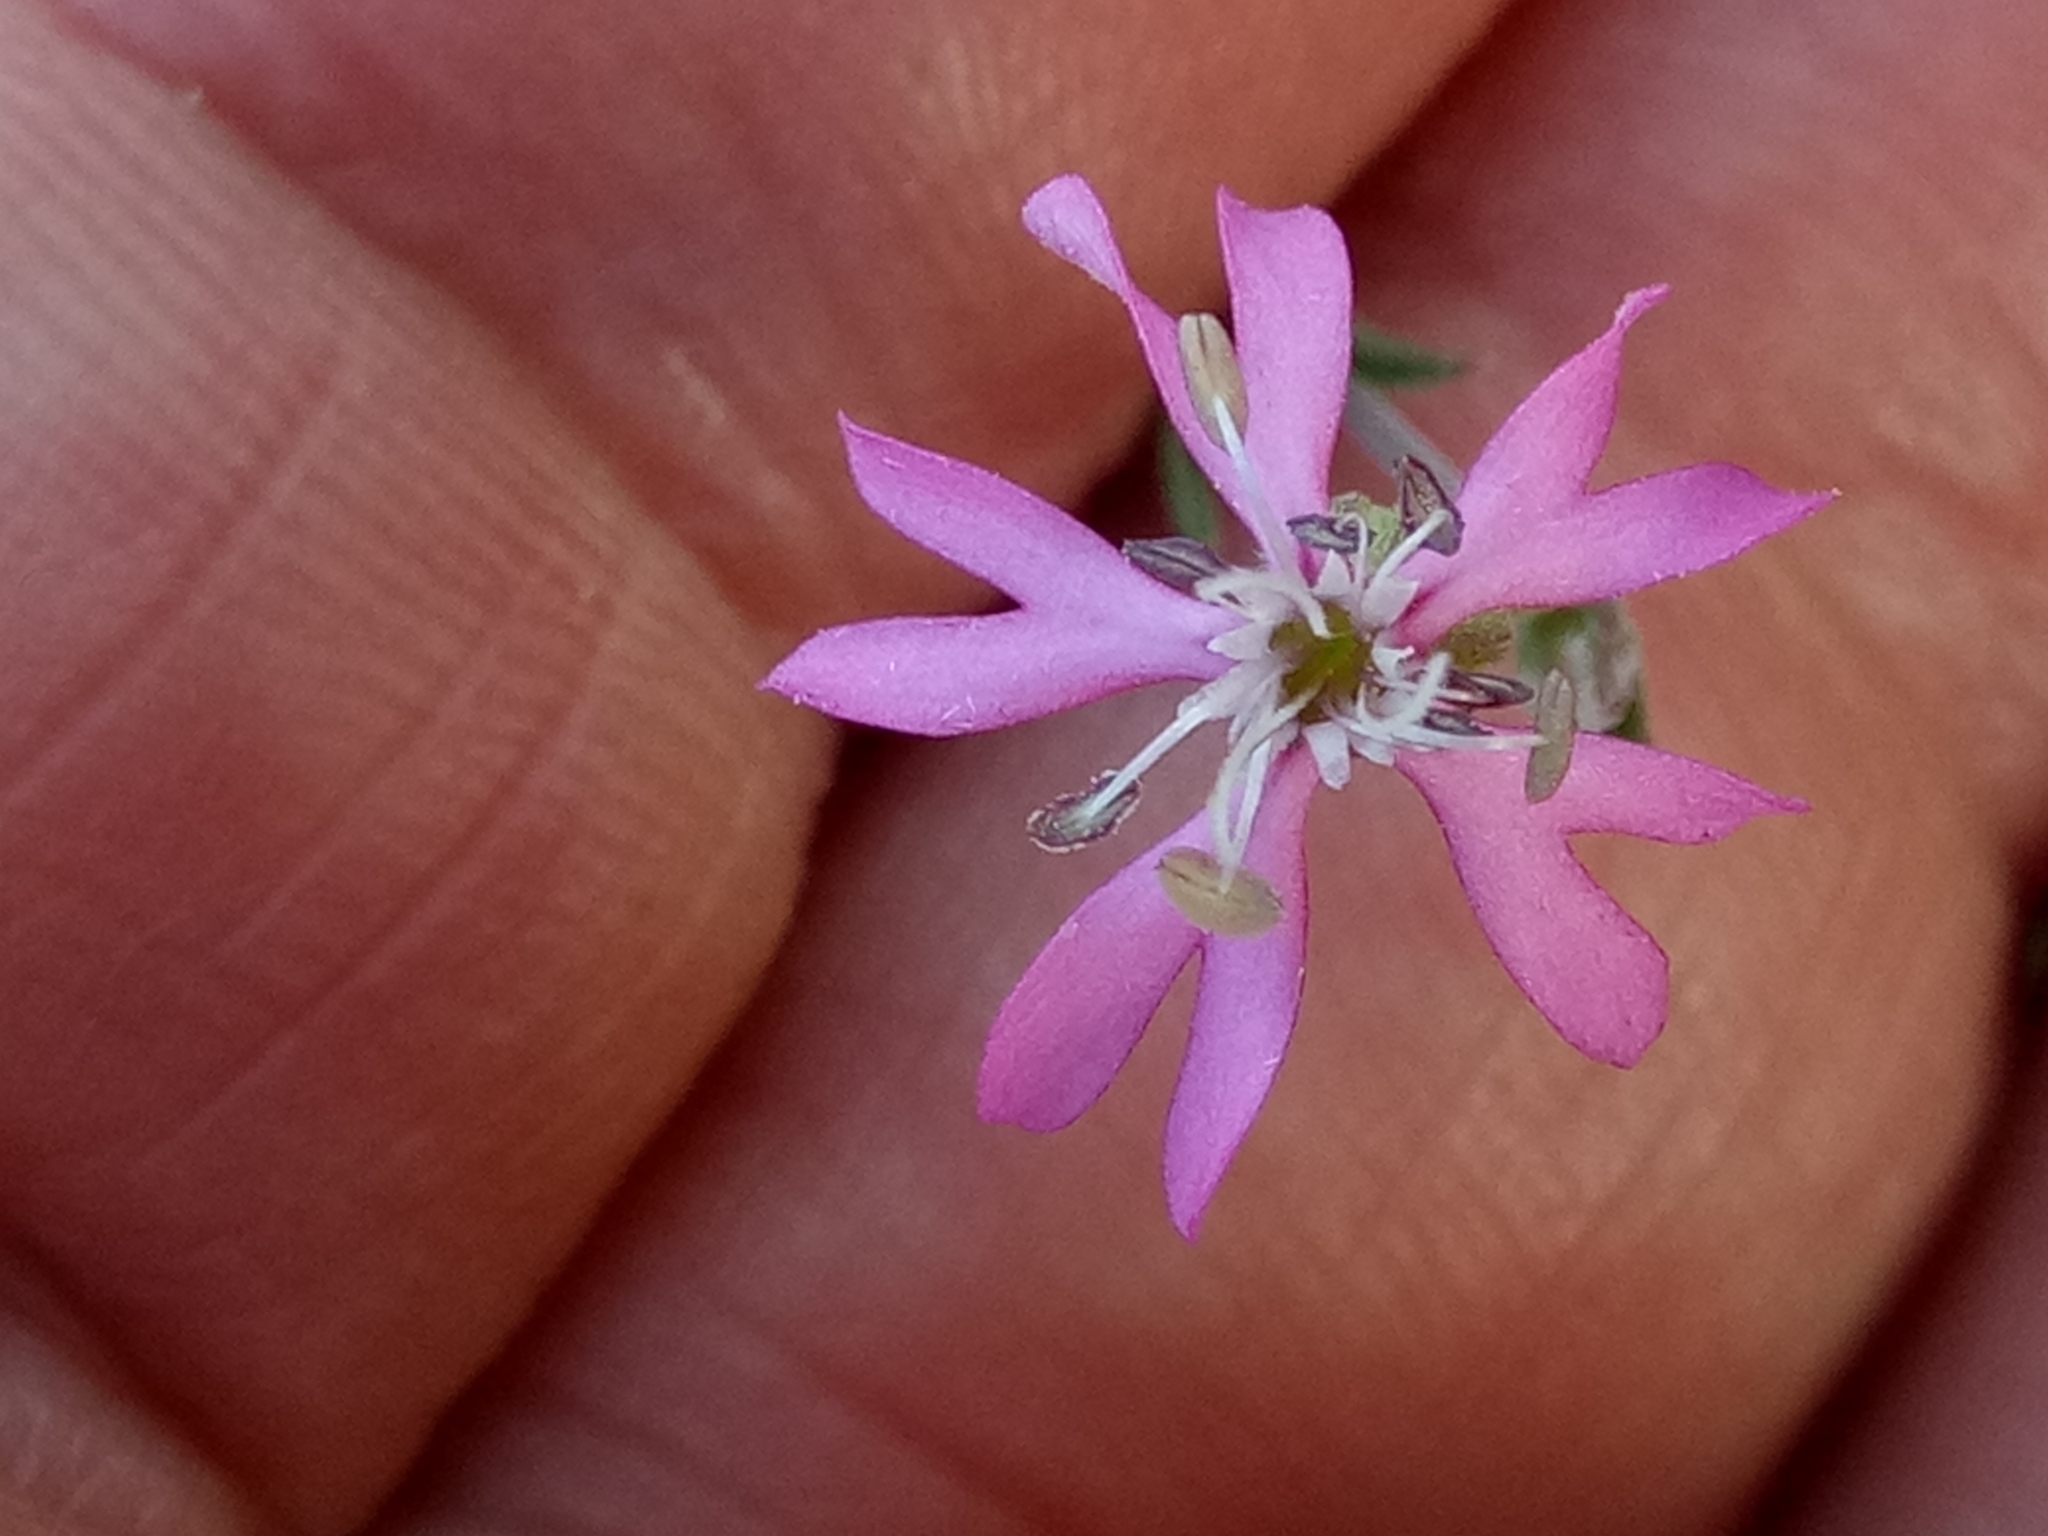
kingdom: Plantae
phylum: Tracheophyta
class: Magnoliopsida
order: Caryophyllales
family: Caryophyllaceae
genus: Silene
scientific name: Silene colorata
